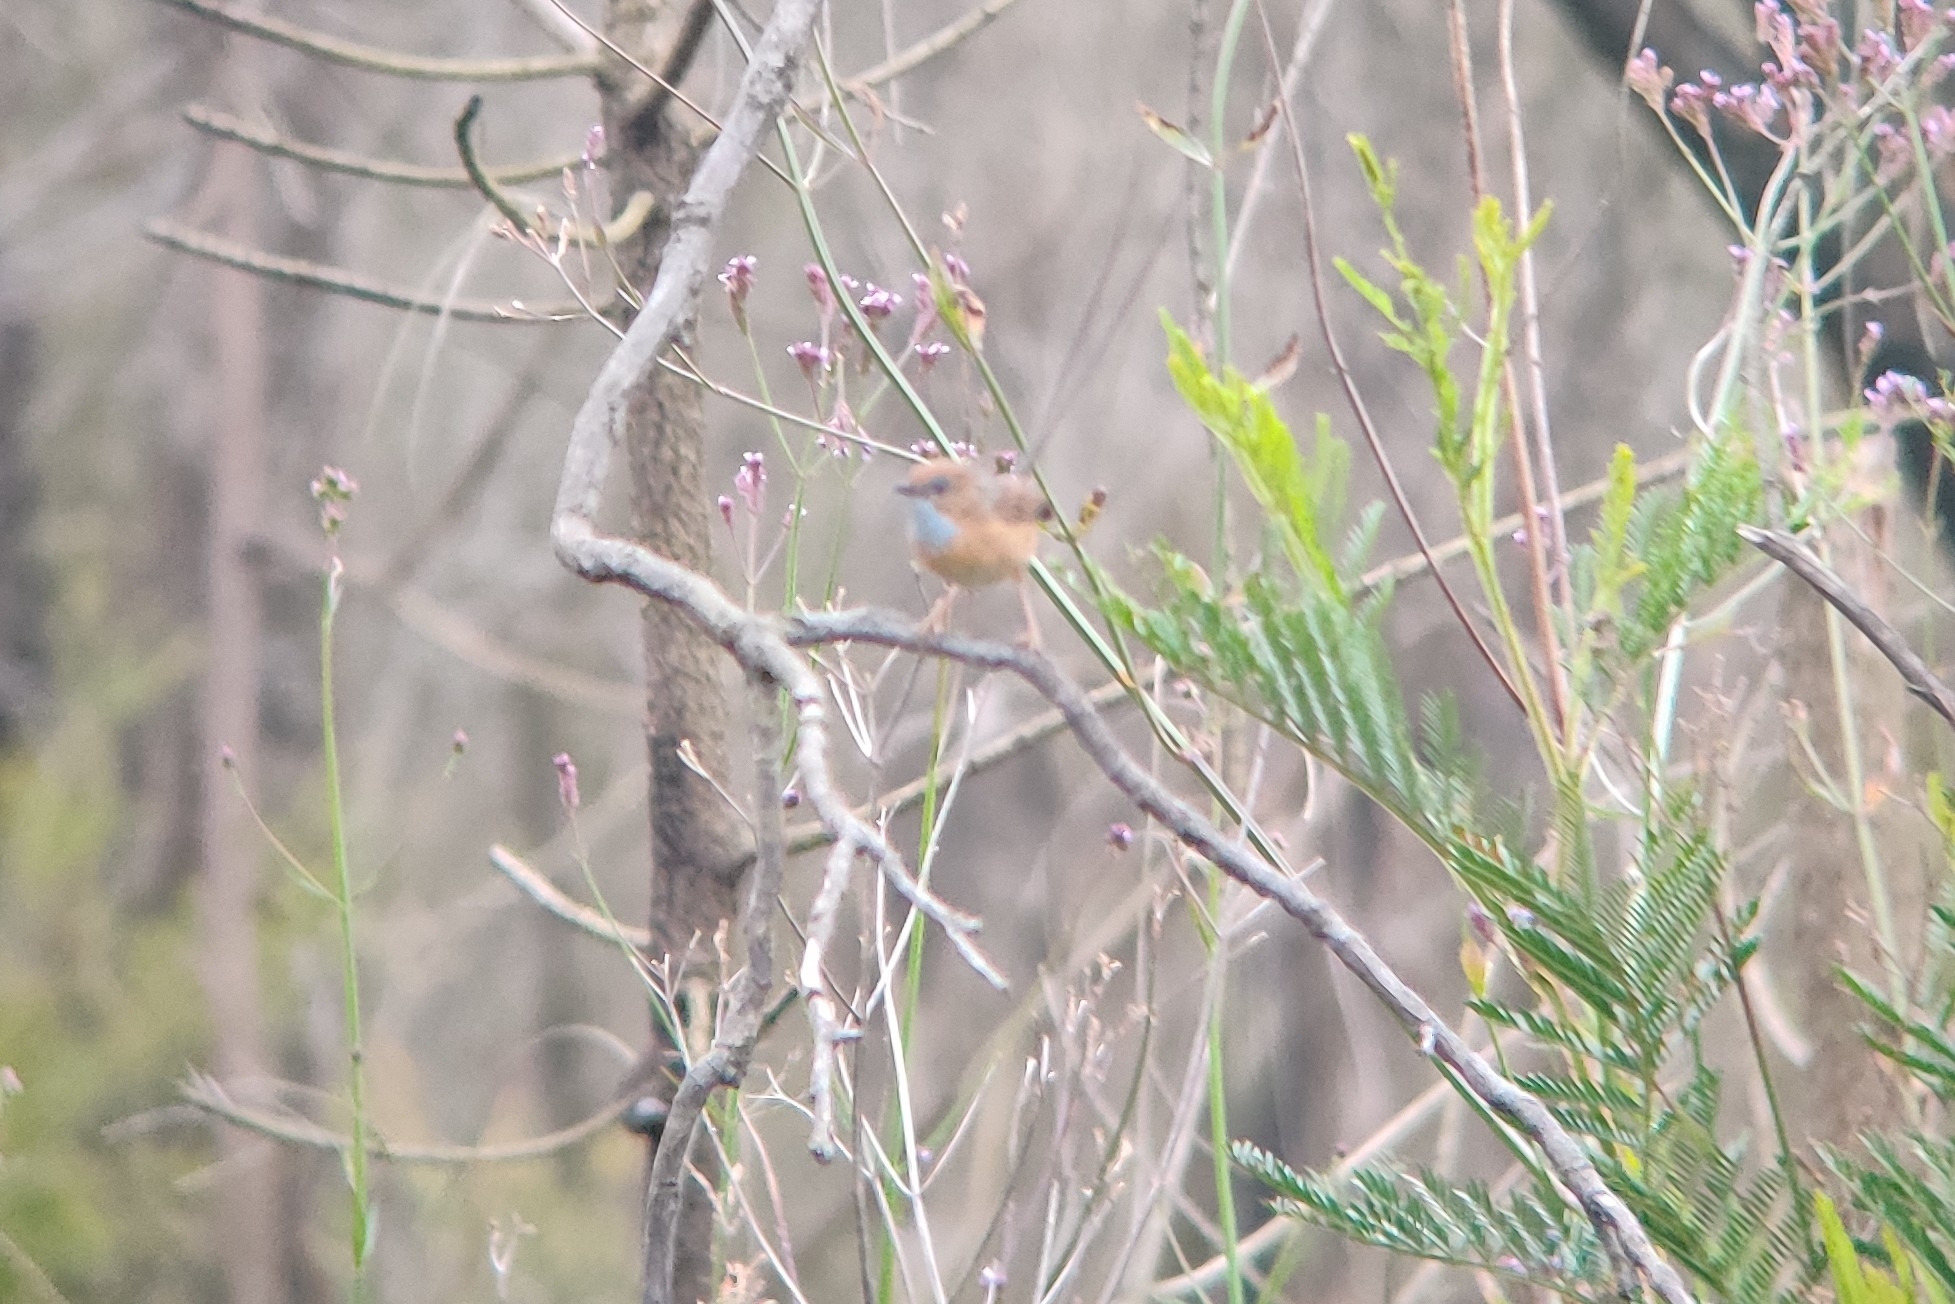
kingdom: Animalia
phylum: Chordata
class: Aves
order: Passeriformes
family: Maluridae
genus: Stipiturus
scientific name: Stipiturus malachurus
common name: Southern emu-wren
